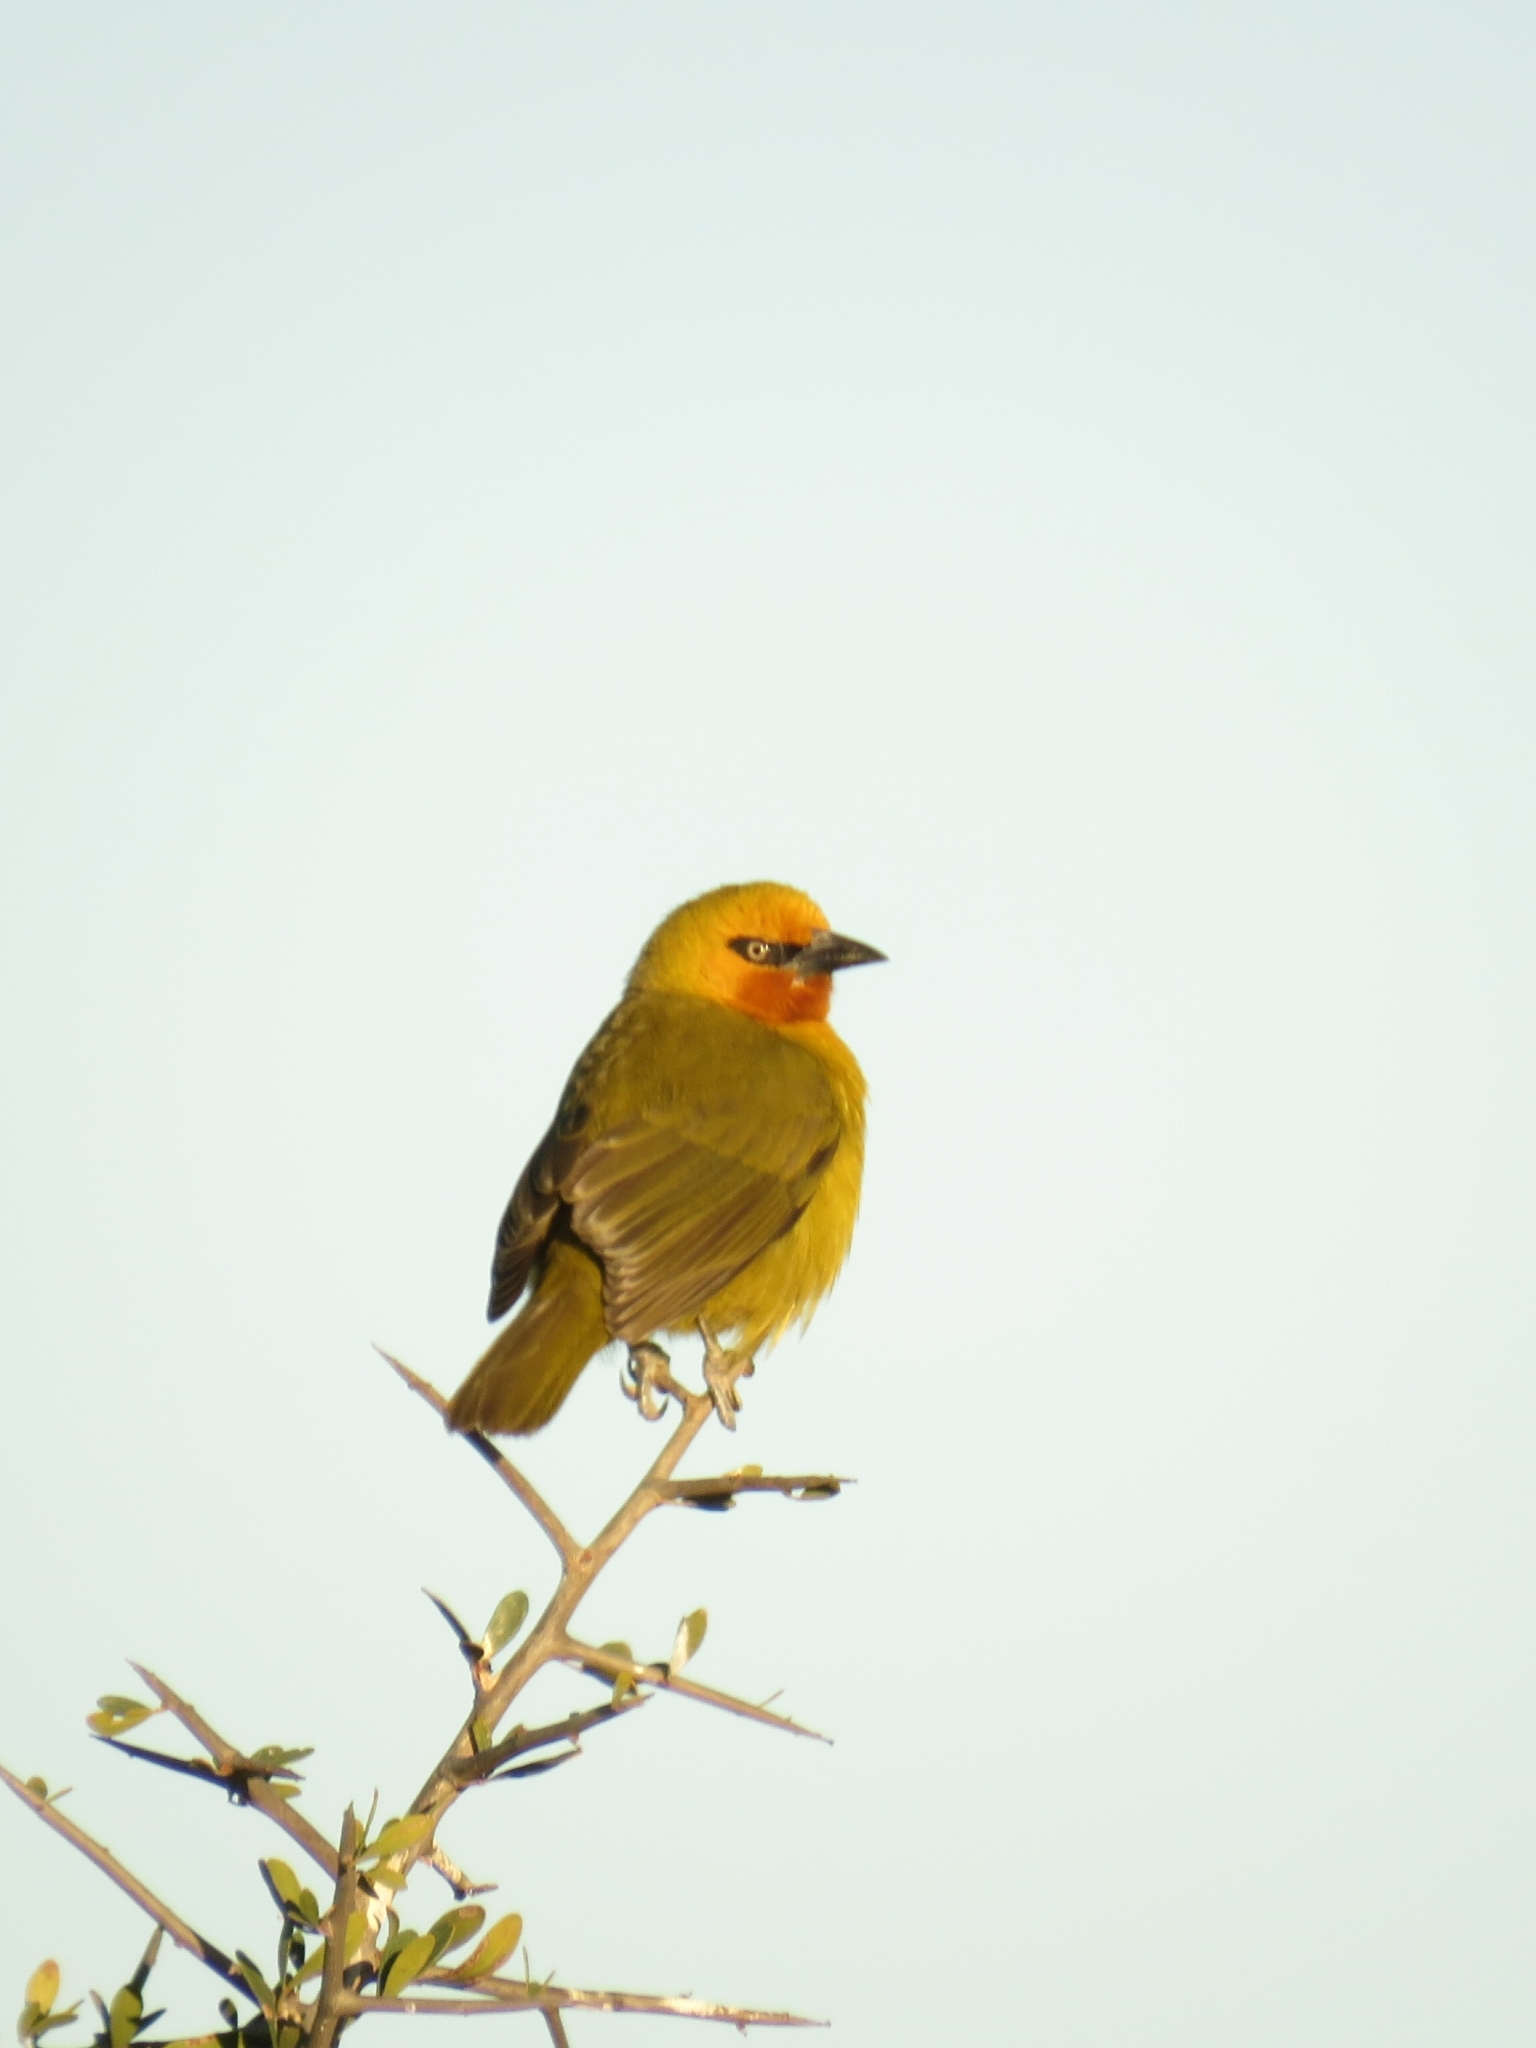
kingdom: Animalia
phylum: Chordata
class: Aves
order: Passeriformes
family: Ploceidae
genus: Ploceus
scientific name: Ploceus ocularis
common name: Spectacled weaver
